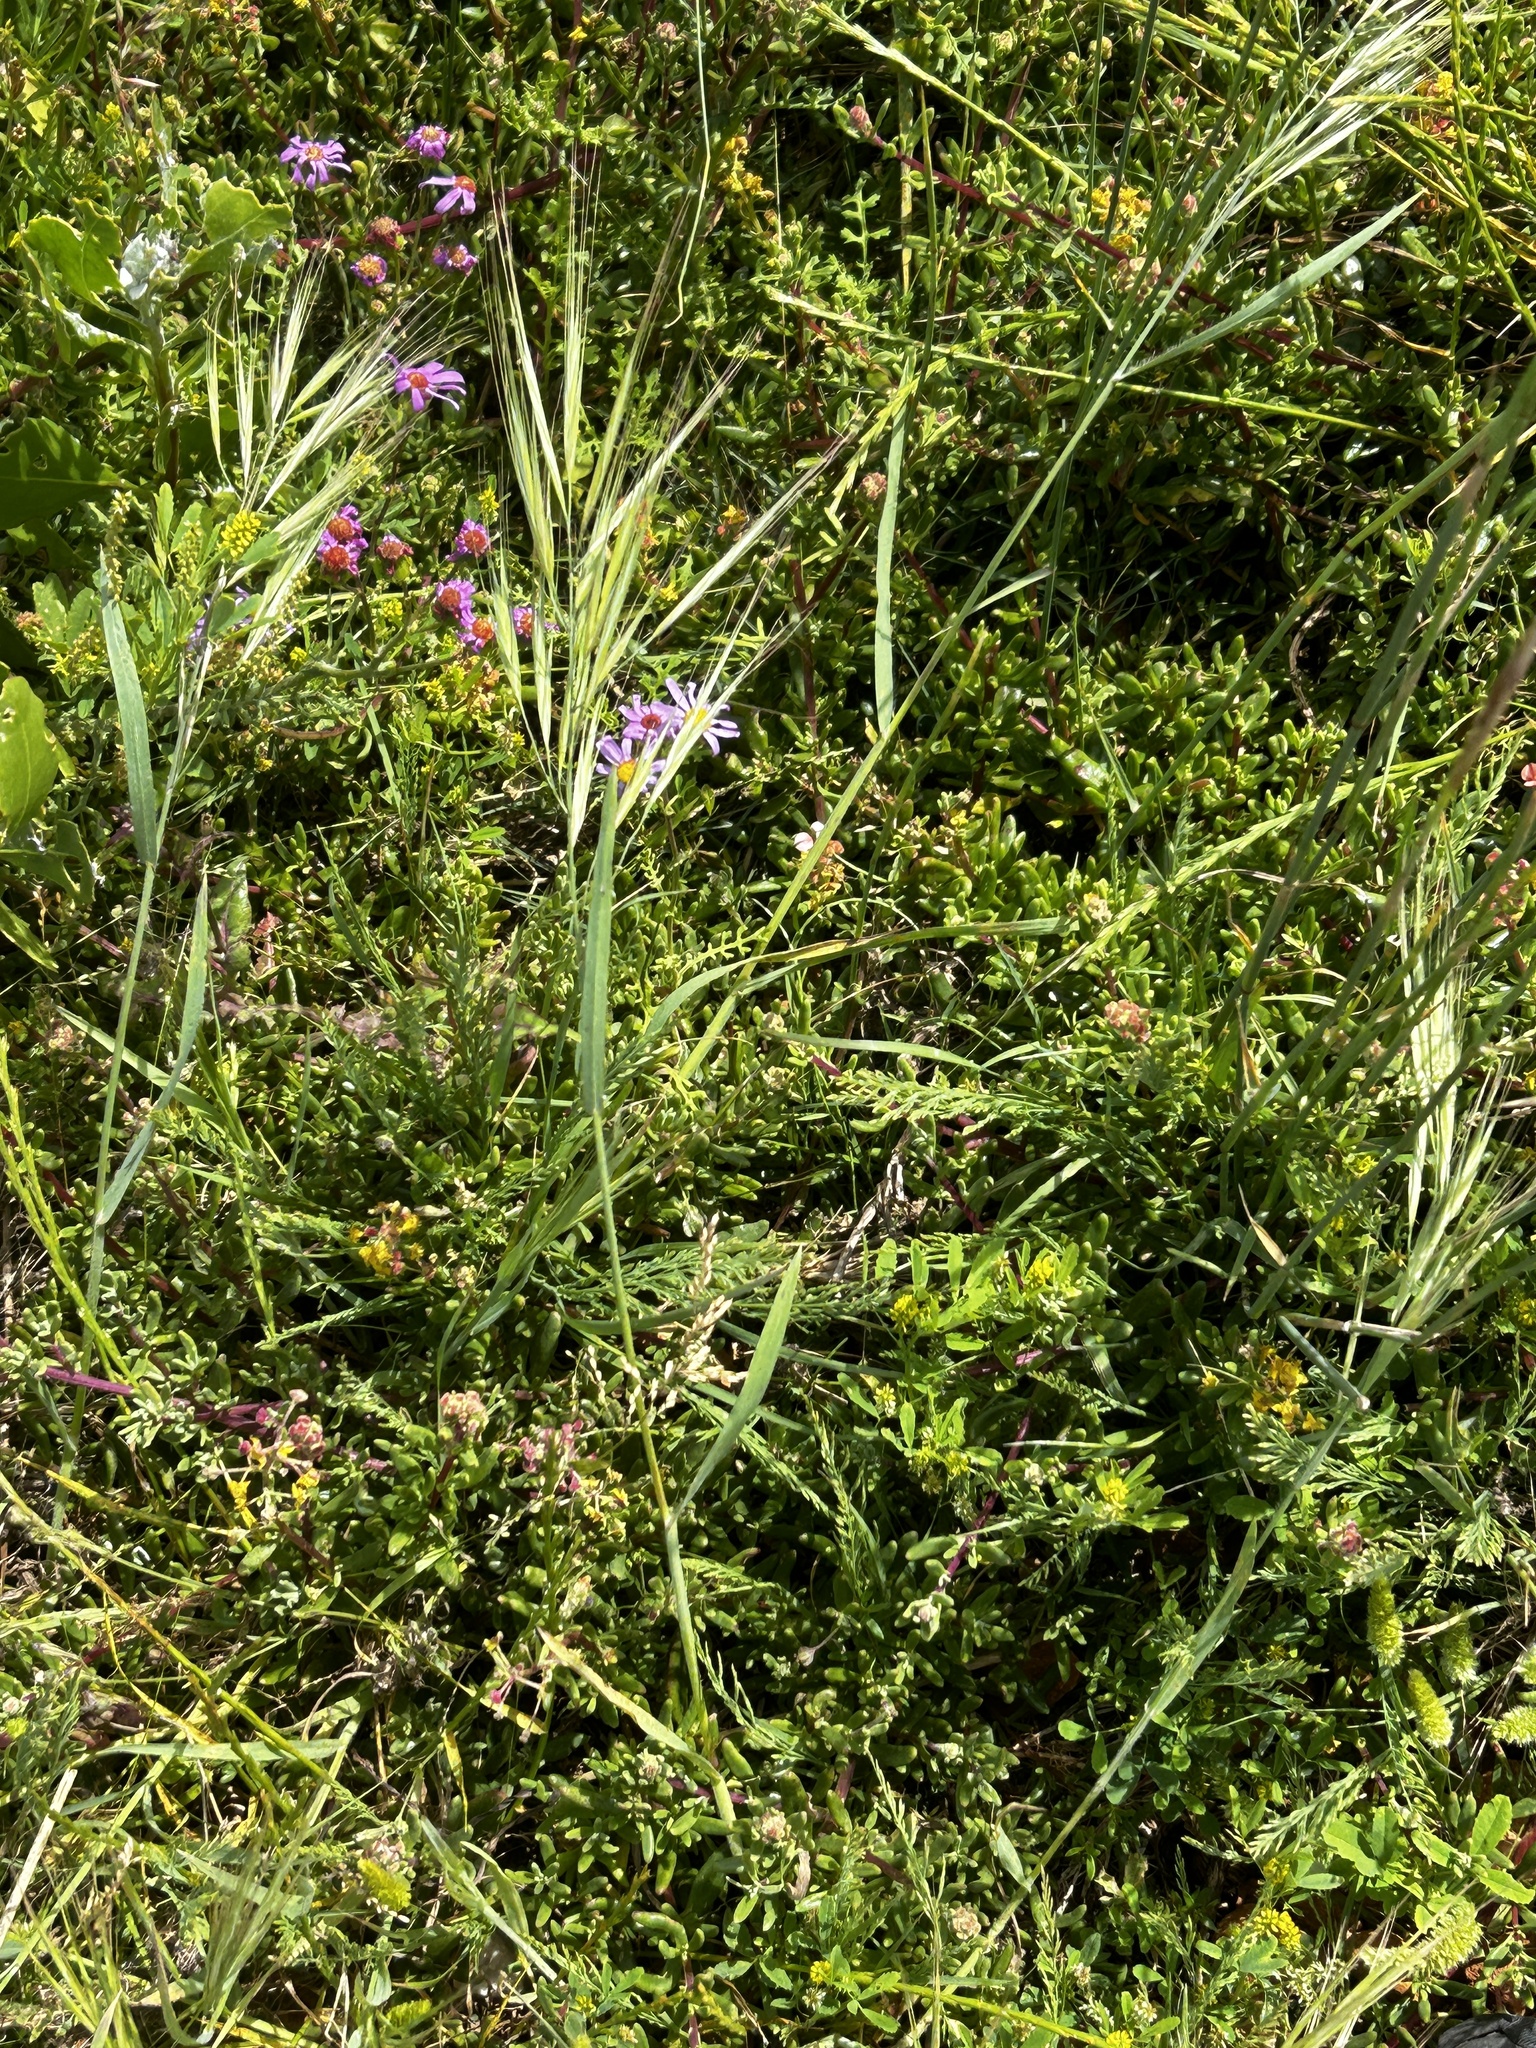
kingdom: Plantae
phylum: Tracheophyta
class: Liliopsida
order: Poales
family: Poaceae
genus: Bromus
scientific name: Bromus diandrus
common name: Ripgut brome
